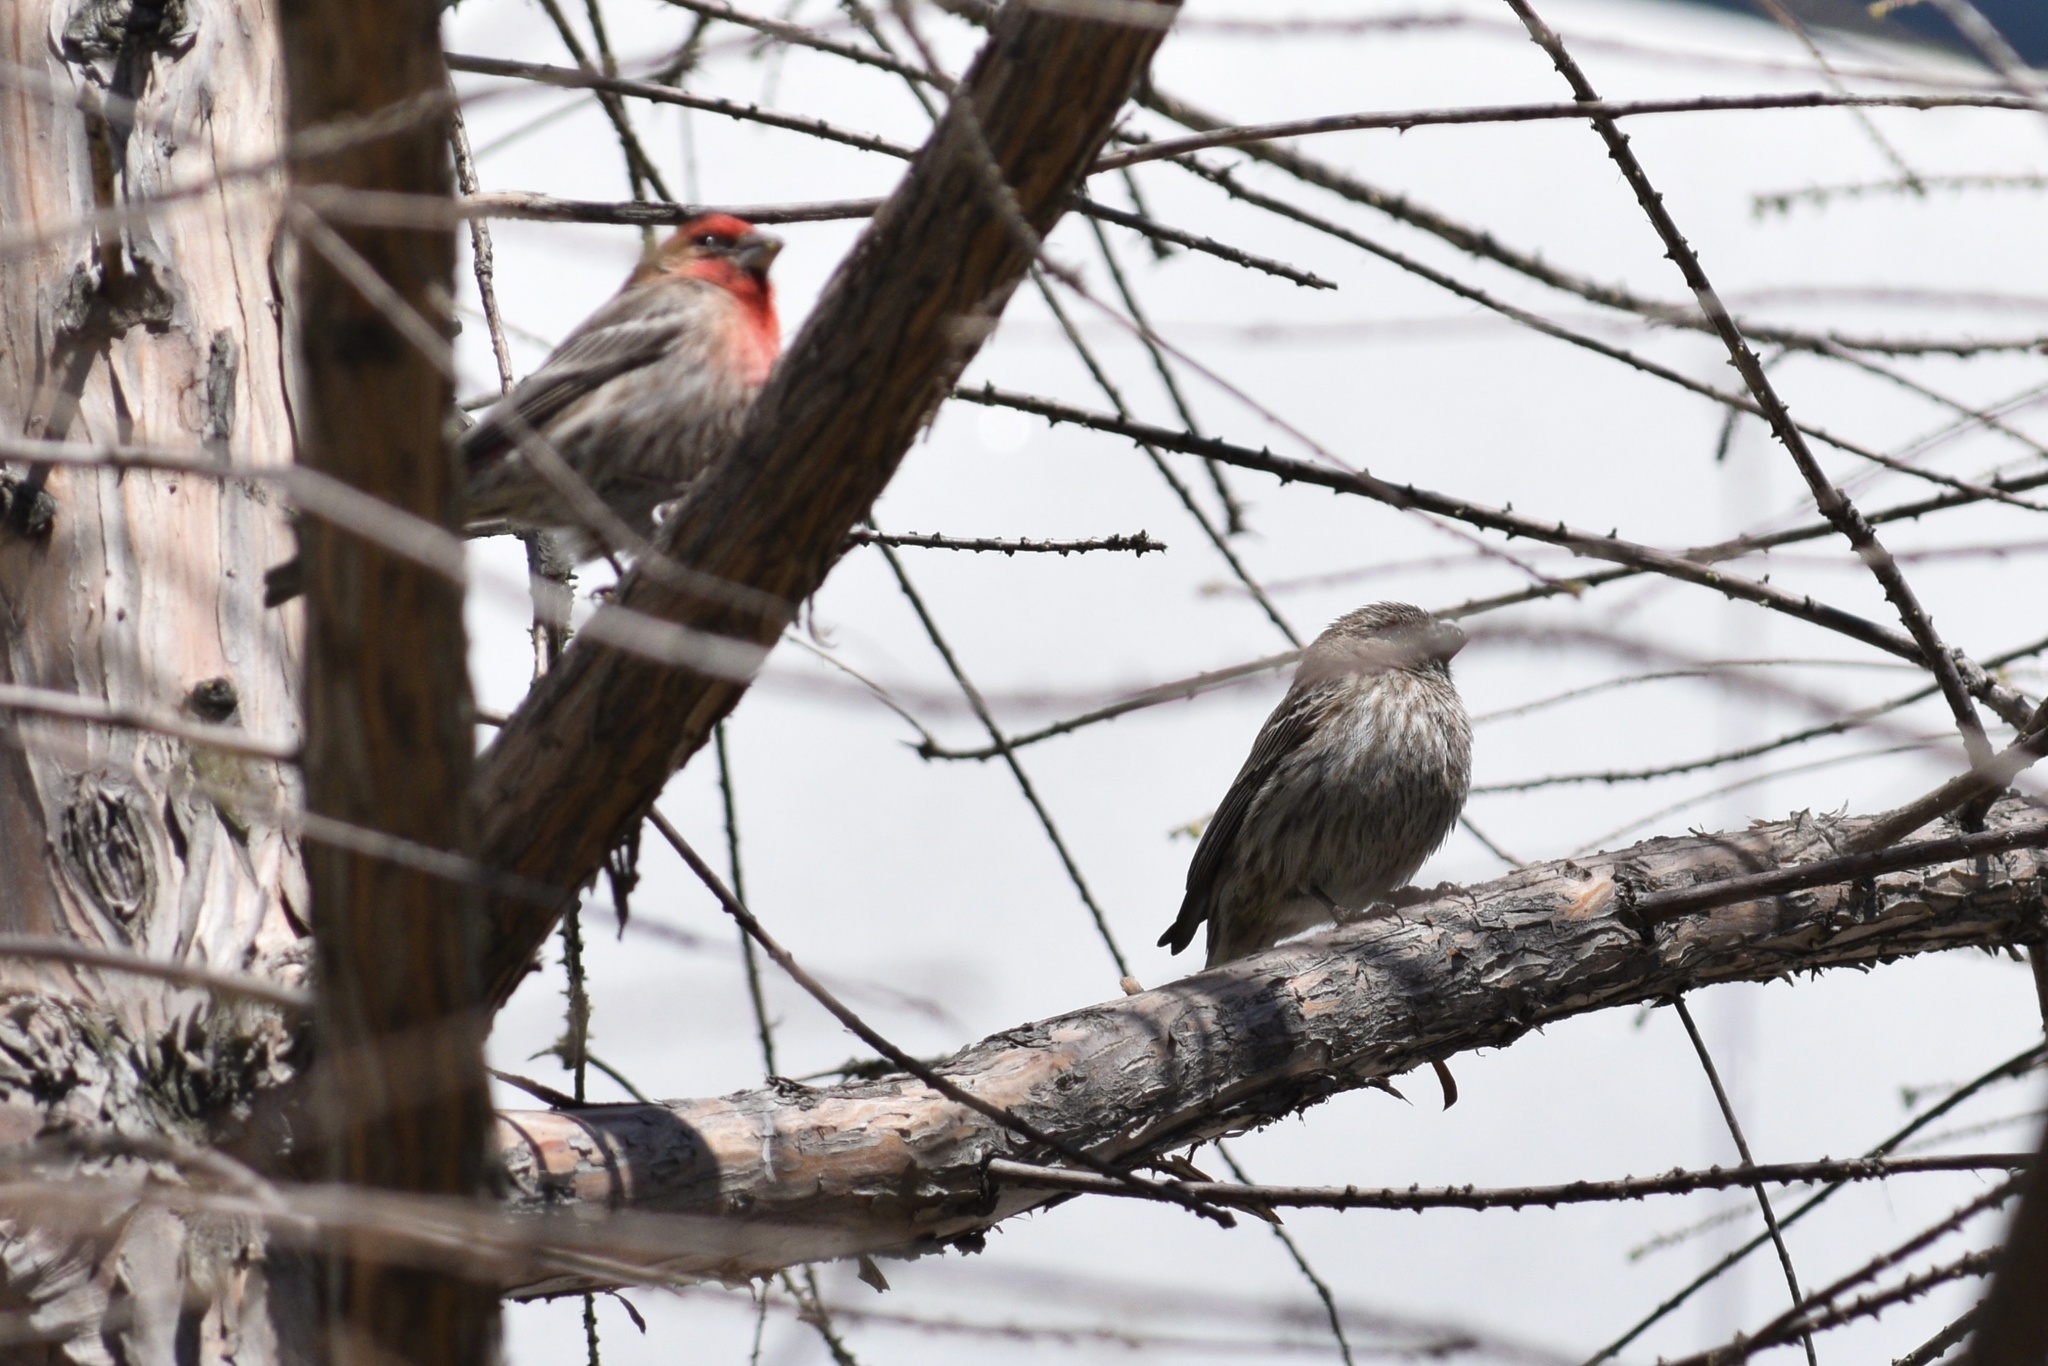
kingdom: Animalia
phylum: Chordata
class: Aves
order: Passeriformes
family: Fringillidae
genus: Haemorhous
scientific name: Haemorhous mexicanus
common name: House finch
